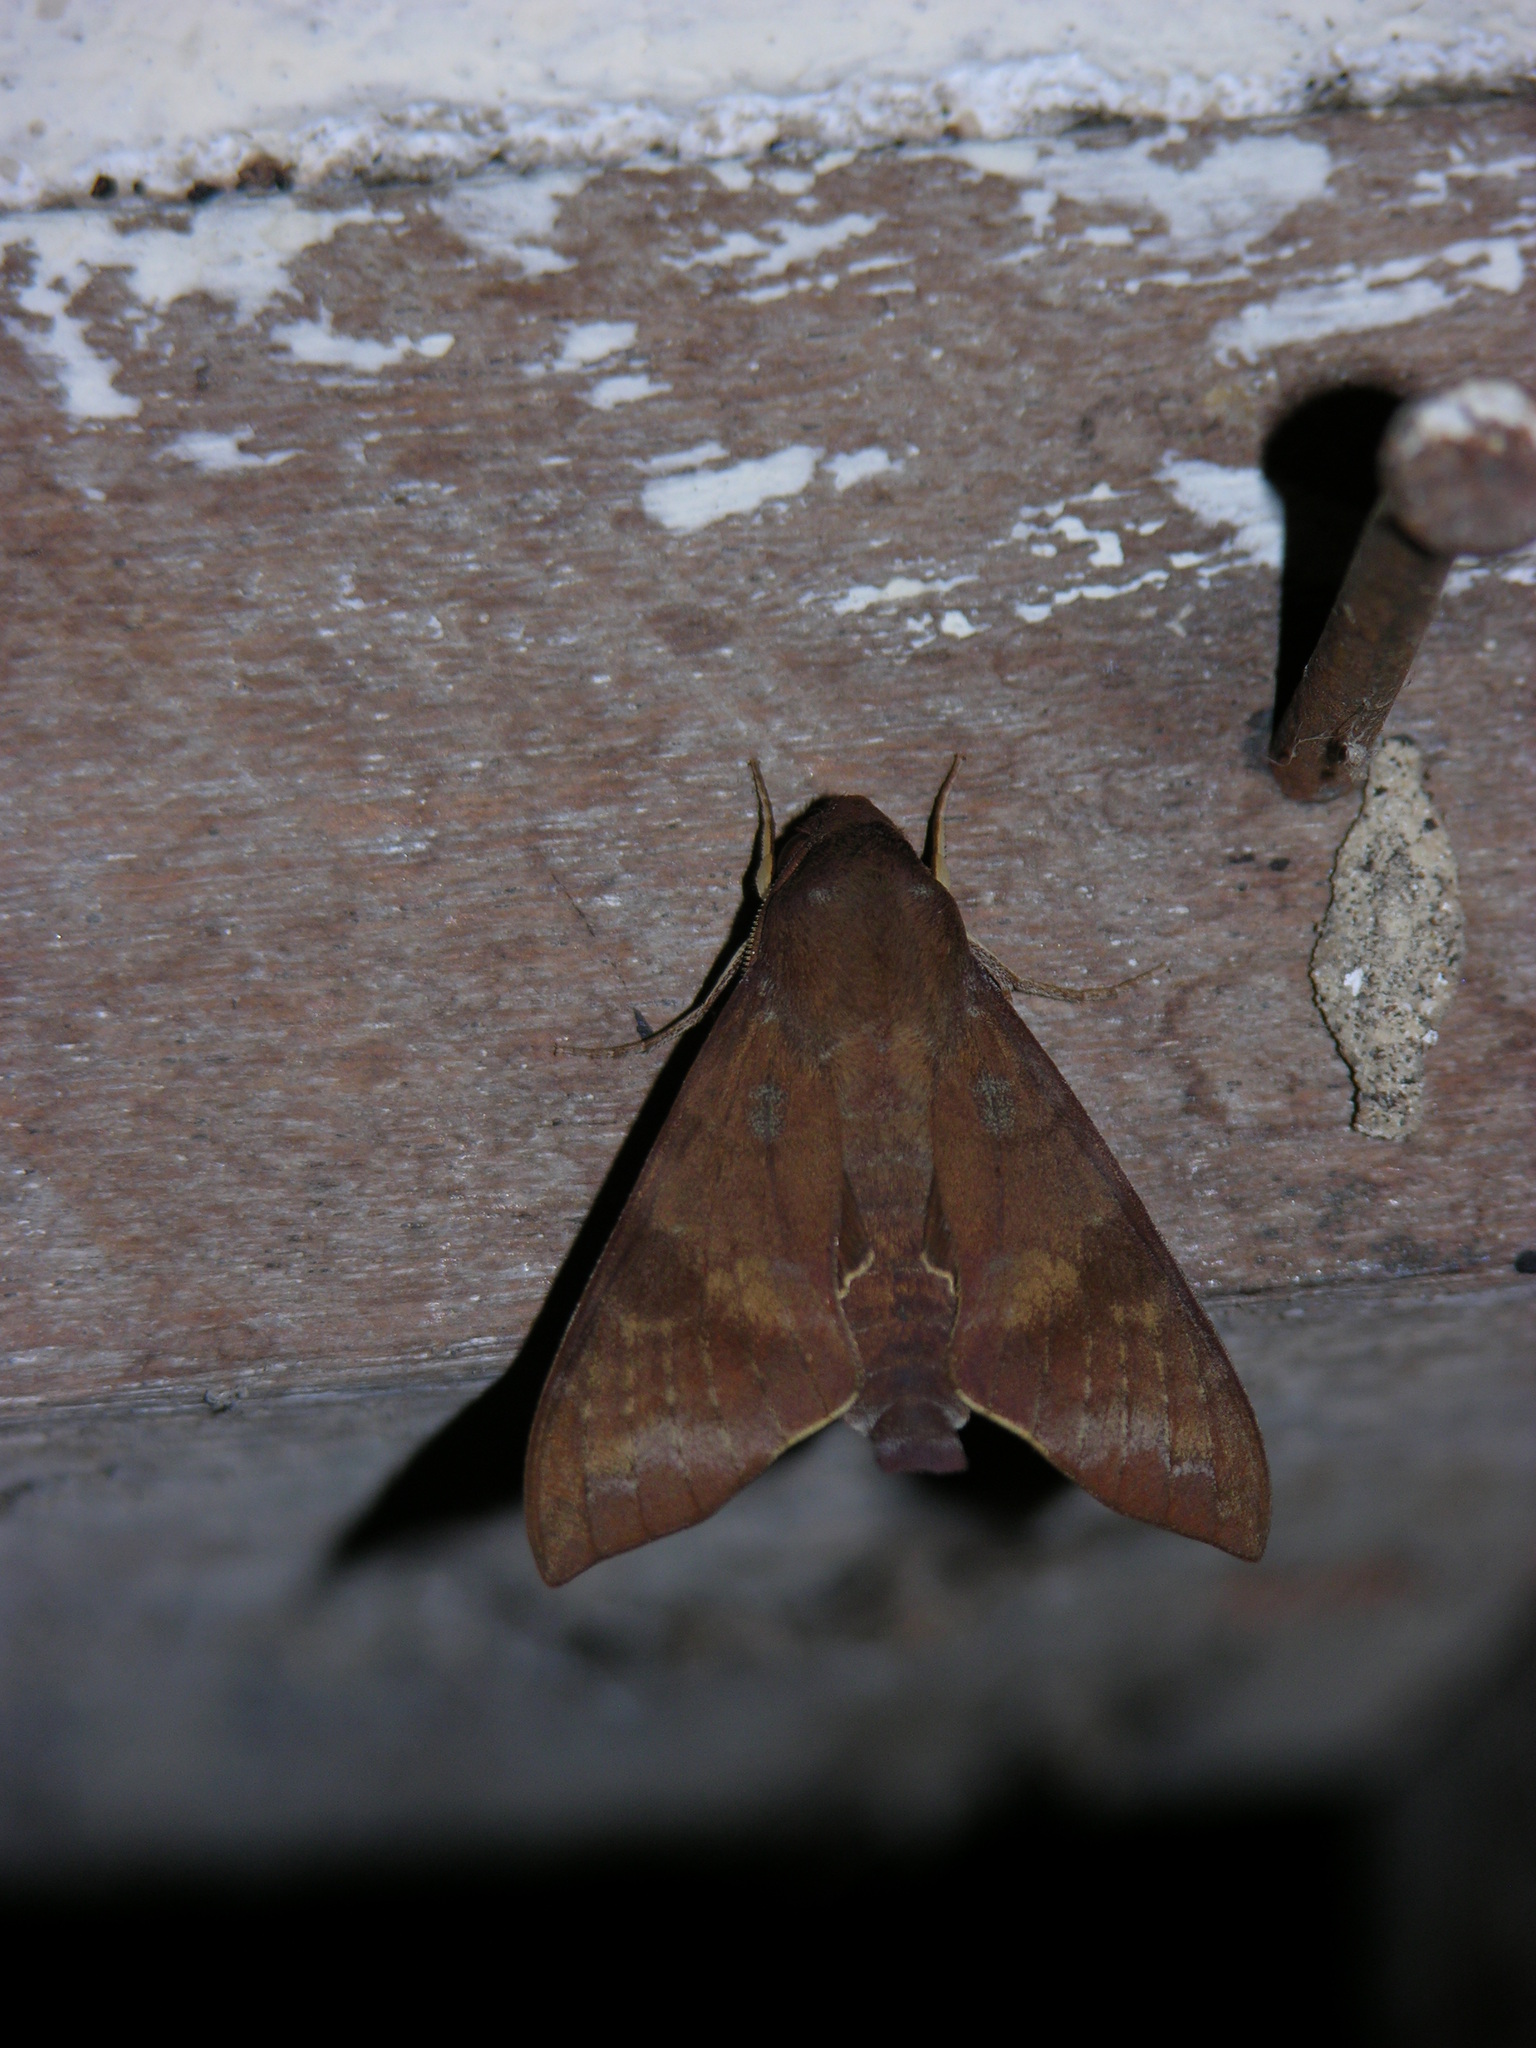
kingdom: Animalia
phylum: Arthropoda
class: Insecta
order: Lepidoptera
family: Sphingidae
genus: Nephele
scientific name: Nephele funebris
